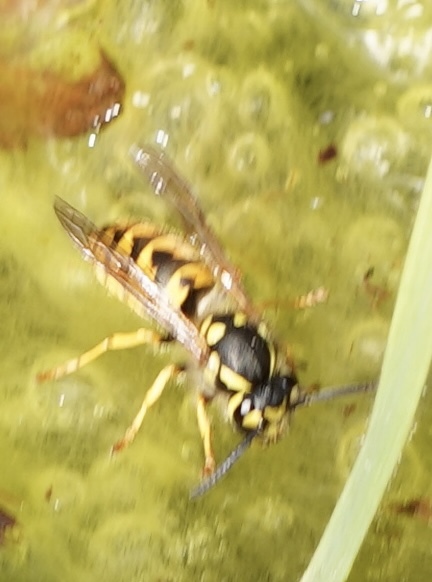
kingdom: Animalia
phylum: Arthropoda
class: Insecta
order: Hymenoptera
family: Vespidae
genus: Vespula
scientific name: Vespula germanica
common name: German wasp
